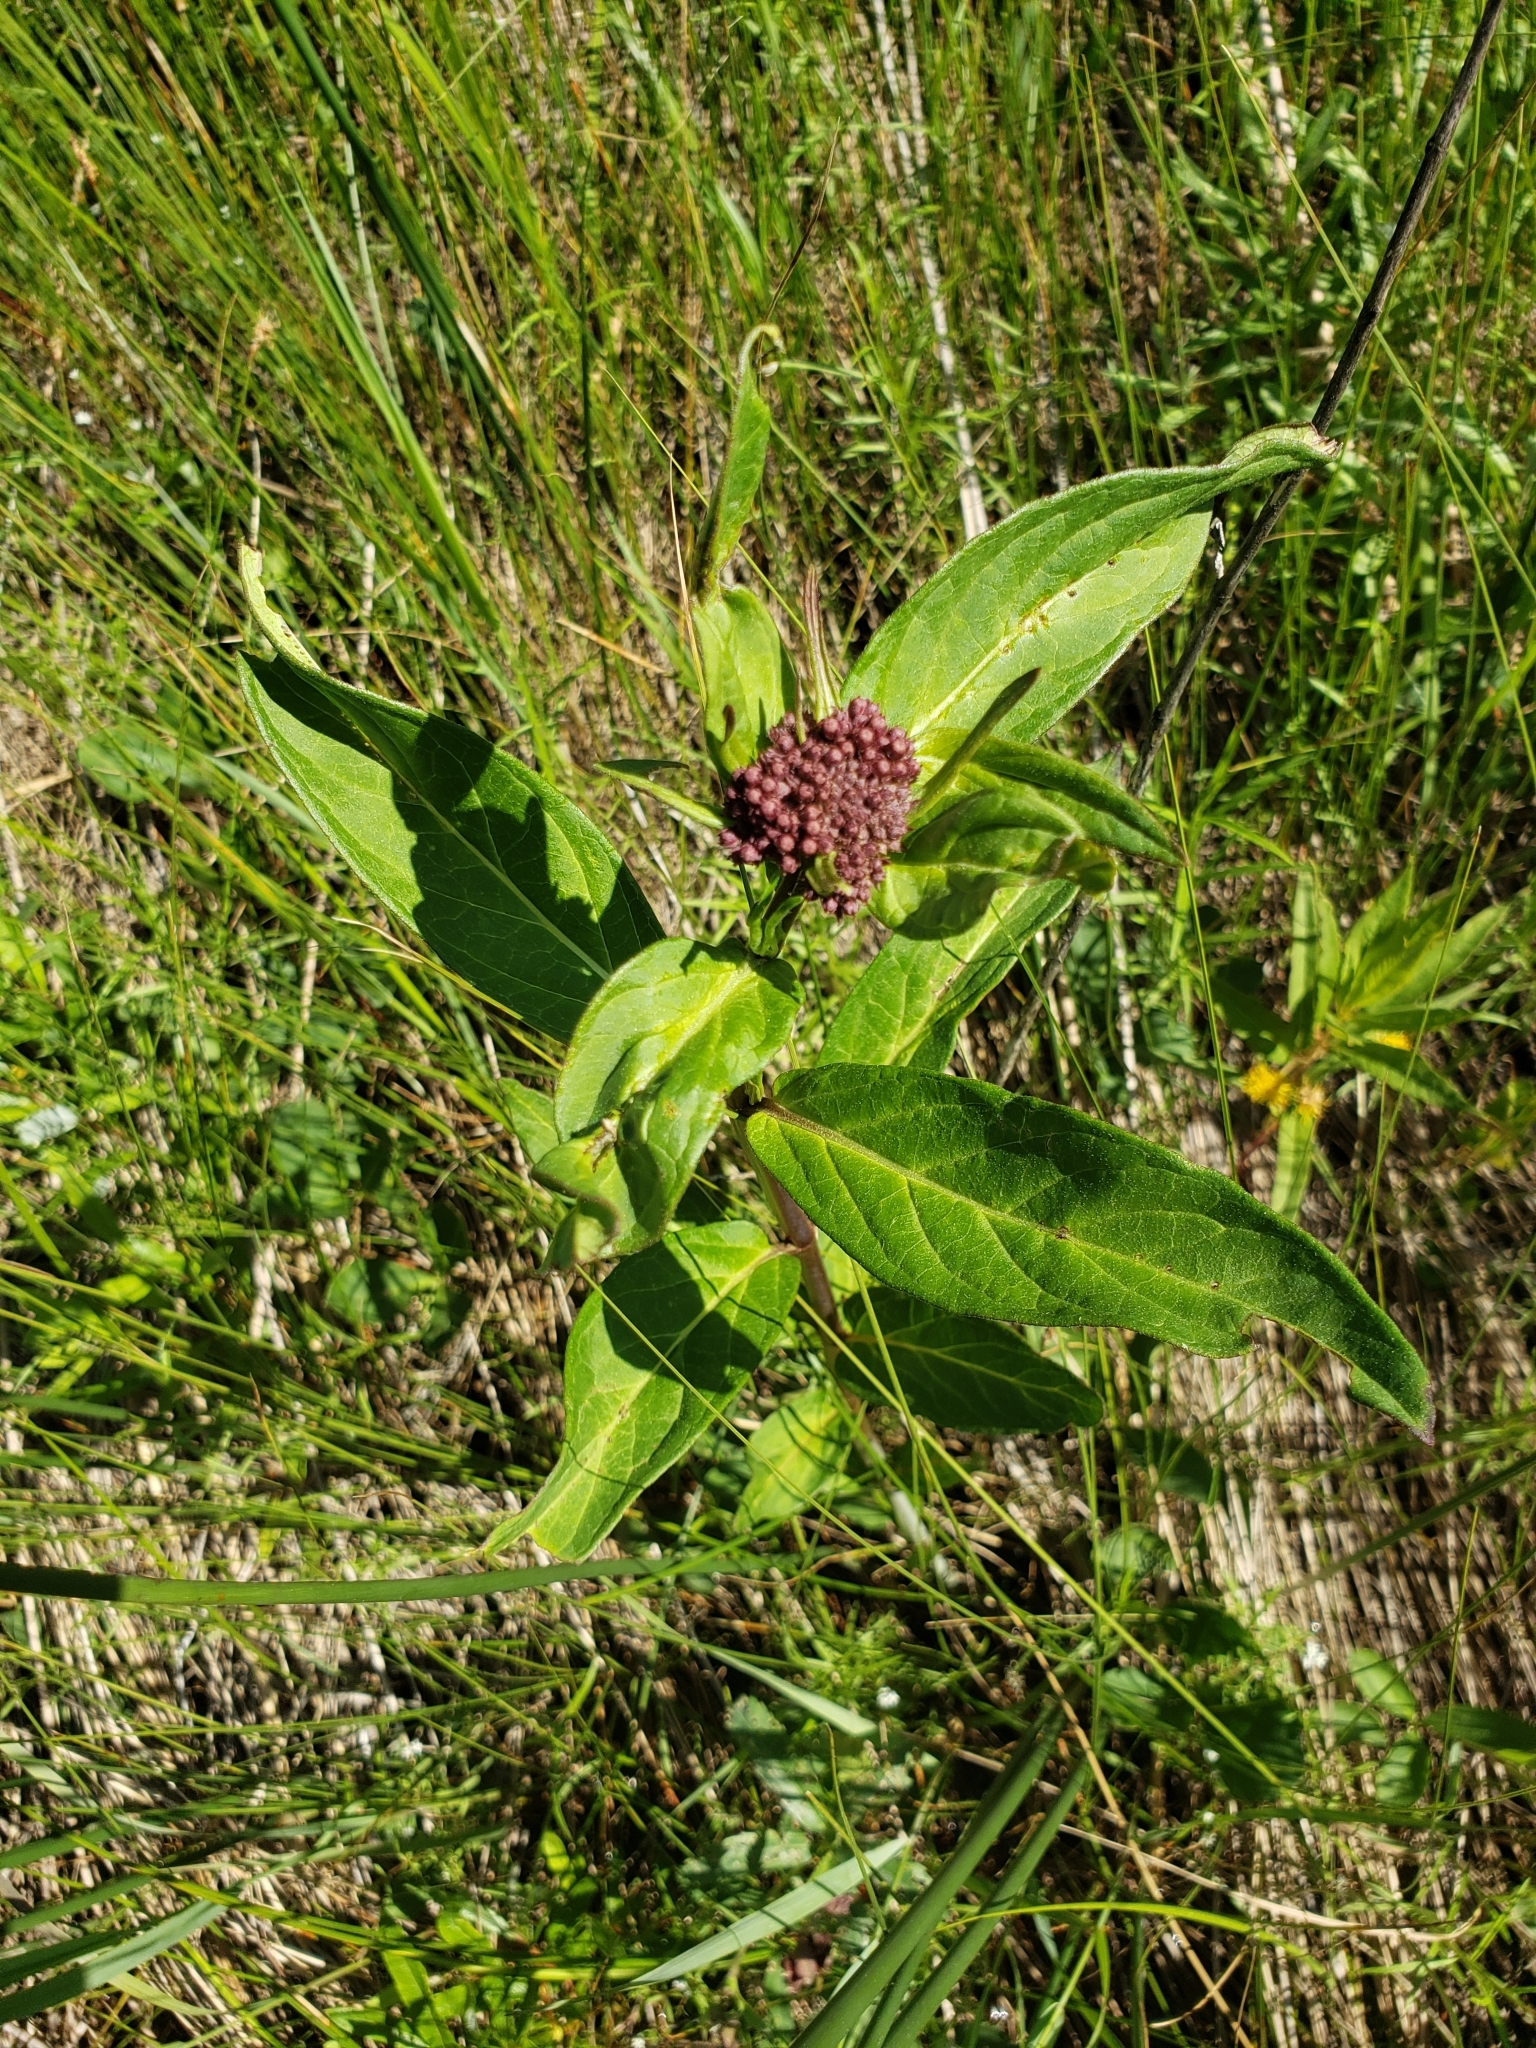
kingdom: Plantae
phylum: Tracheophyta
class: Magnoliopsida
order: Gentianales
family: Apocynaceae
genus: Asclepias
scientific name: Asclepias incarnata
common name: Swamp milkweed
